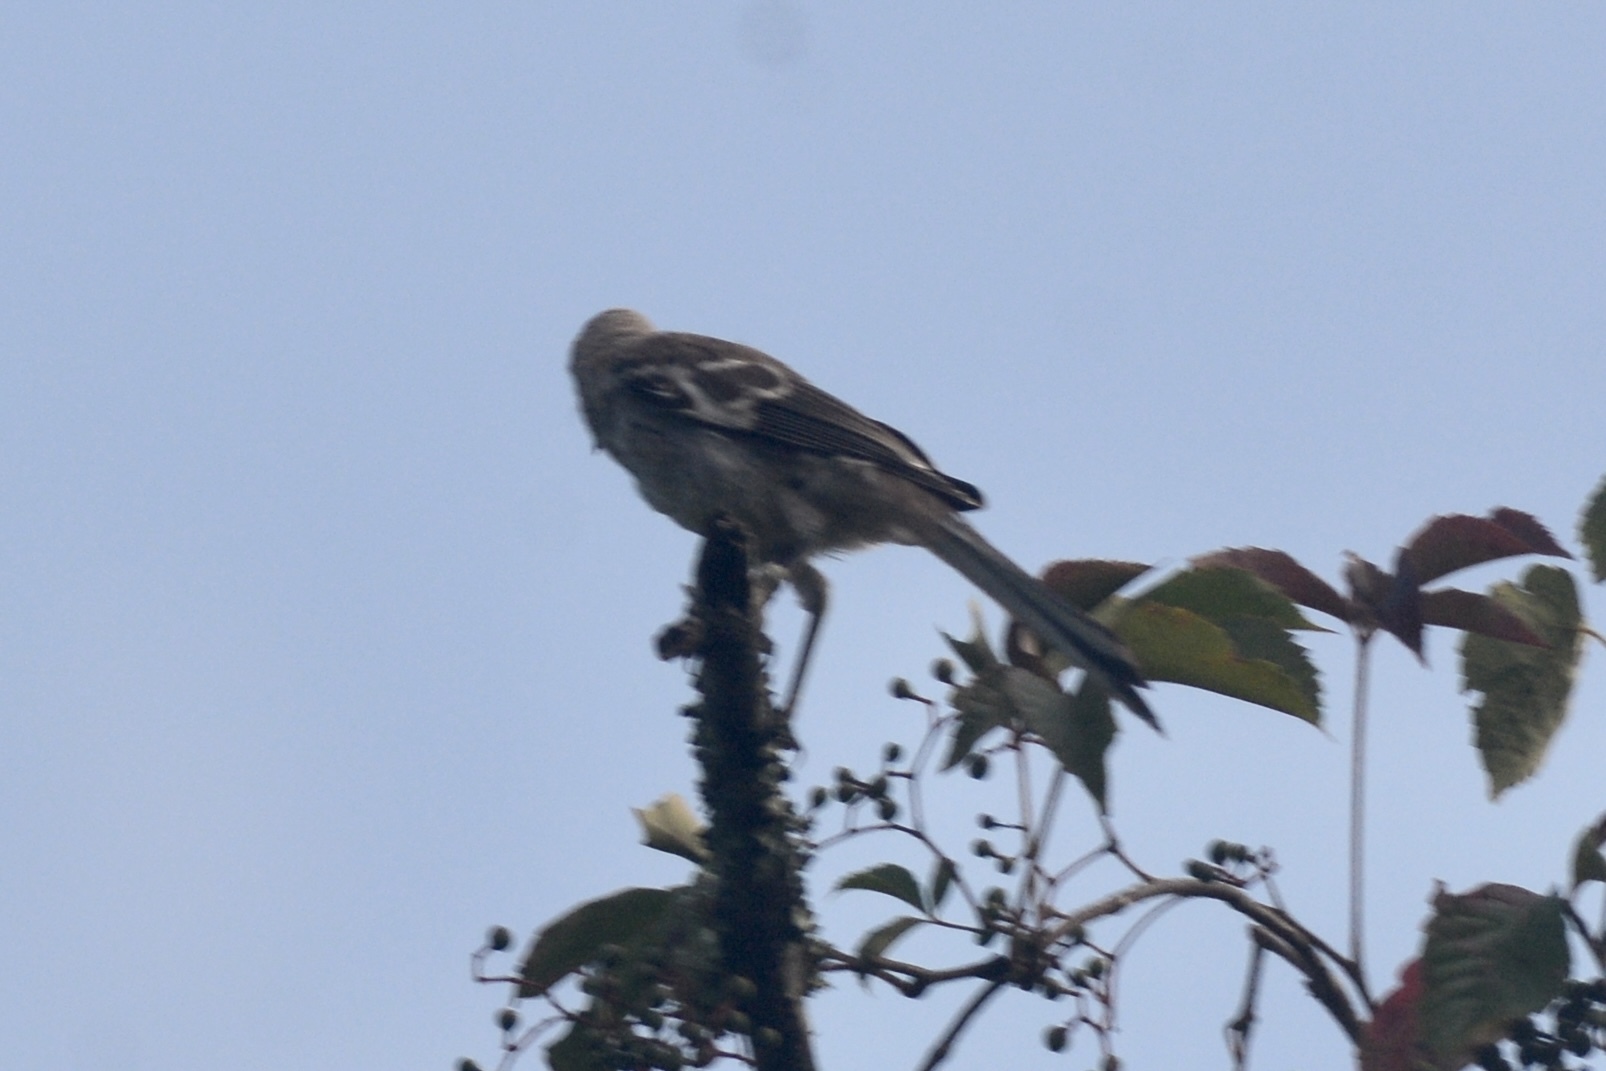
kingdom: Animalia
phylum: Chordata
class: Aves
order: Passeriformes
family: Mimidae
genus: Mimus
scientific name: Mimus polyglottos
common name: Northern mockingbird
